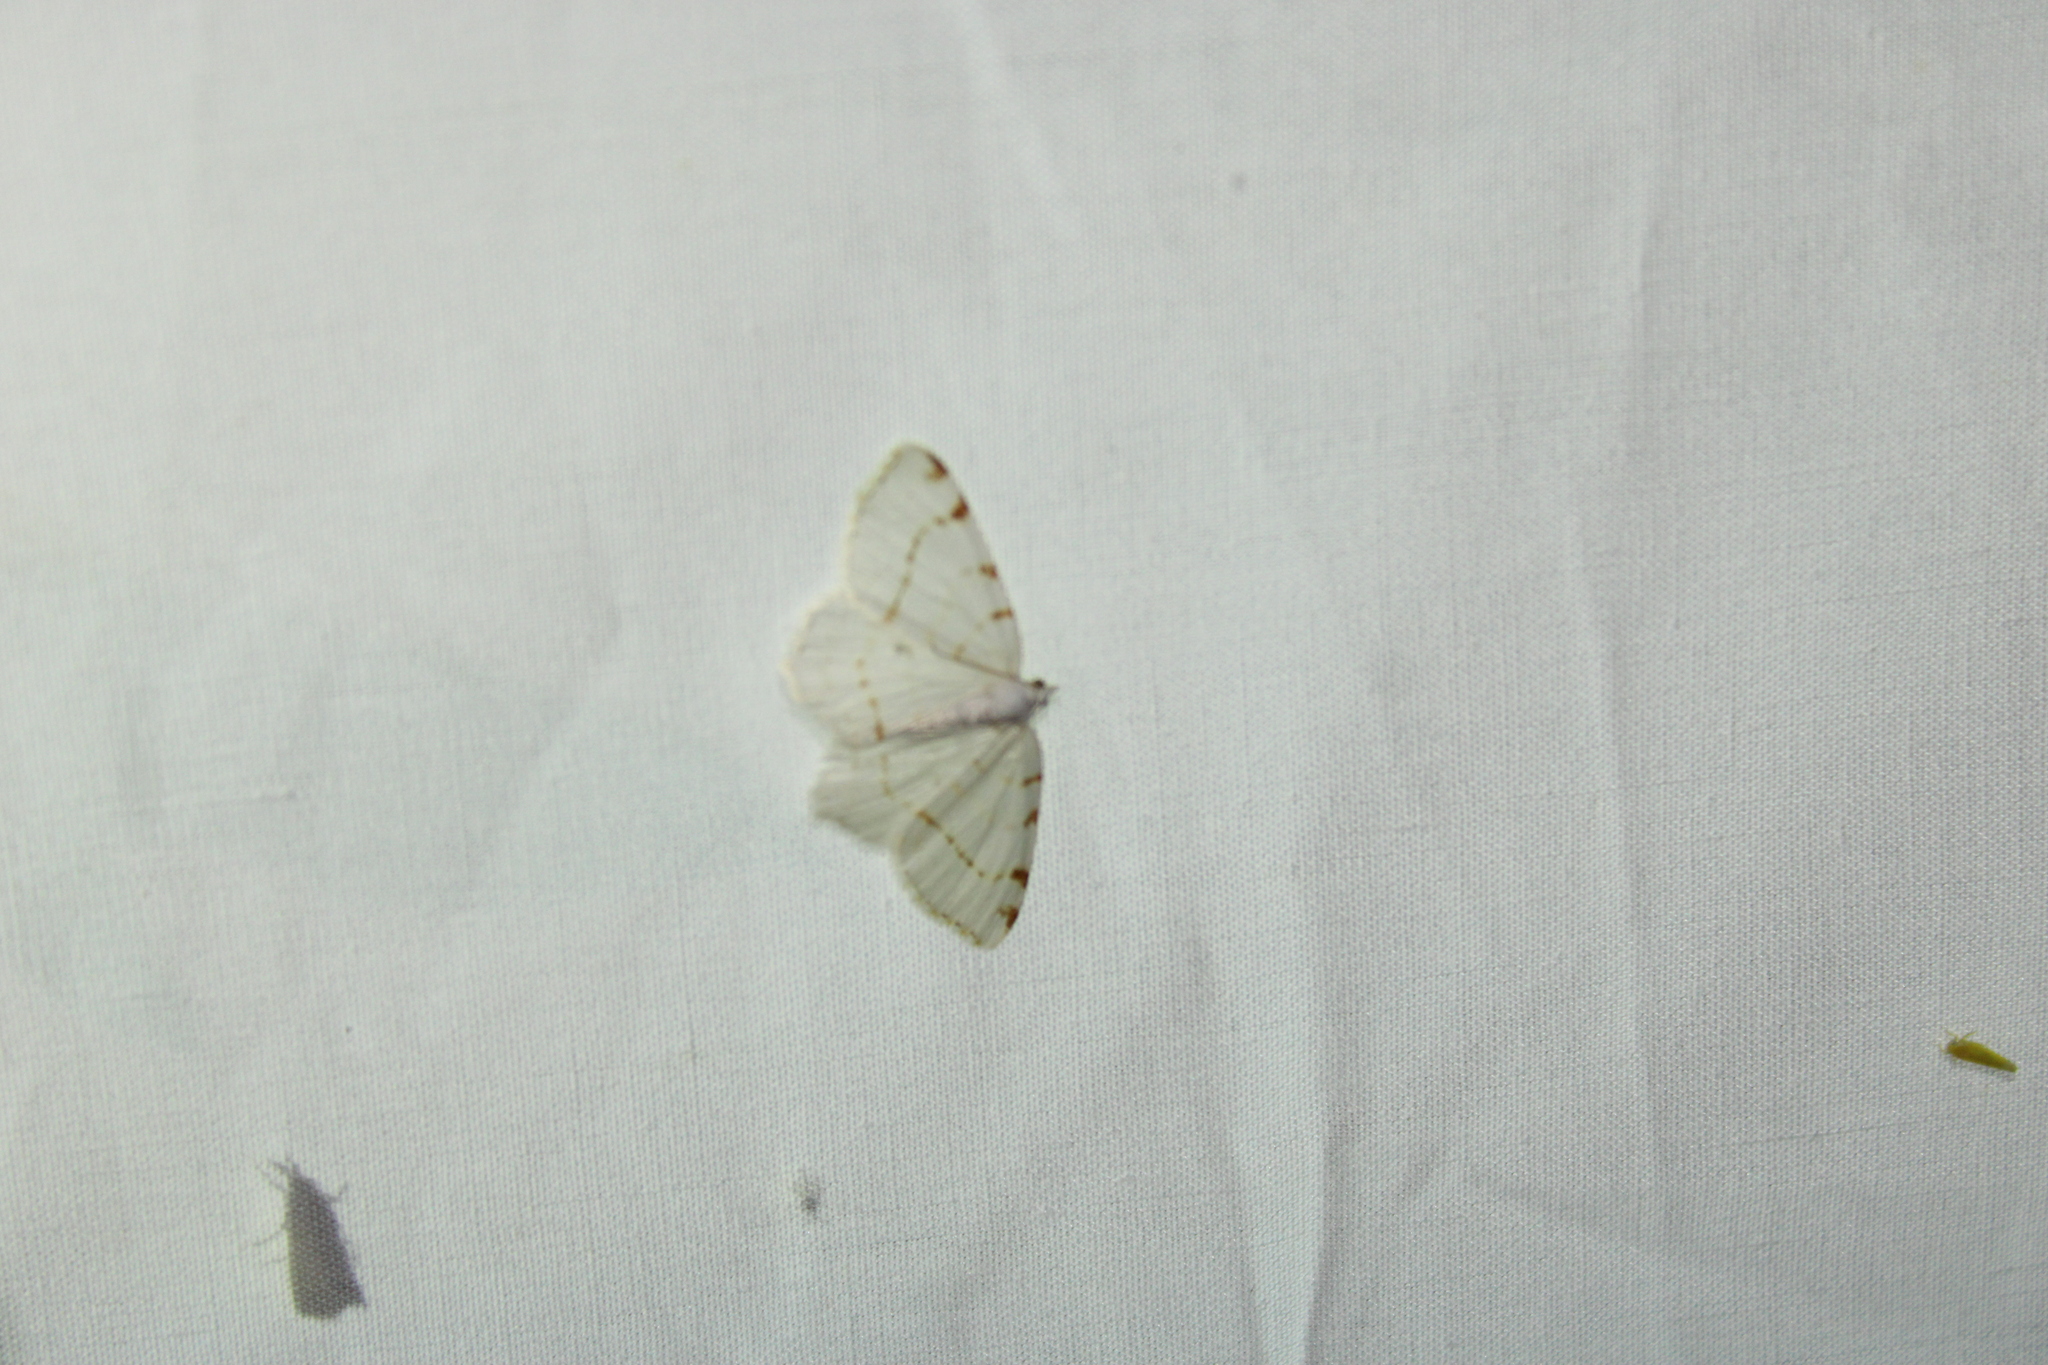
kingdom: Animalia
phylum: Arthropoda
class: Insecta
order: Lepidoptera
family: Geometridae
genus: Macaria
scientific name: Macaria pustularia
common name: Lesser maple spanworm moth
